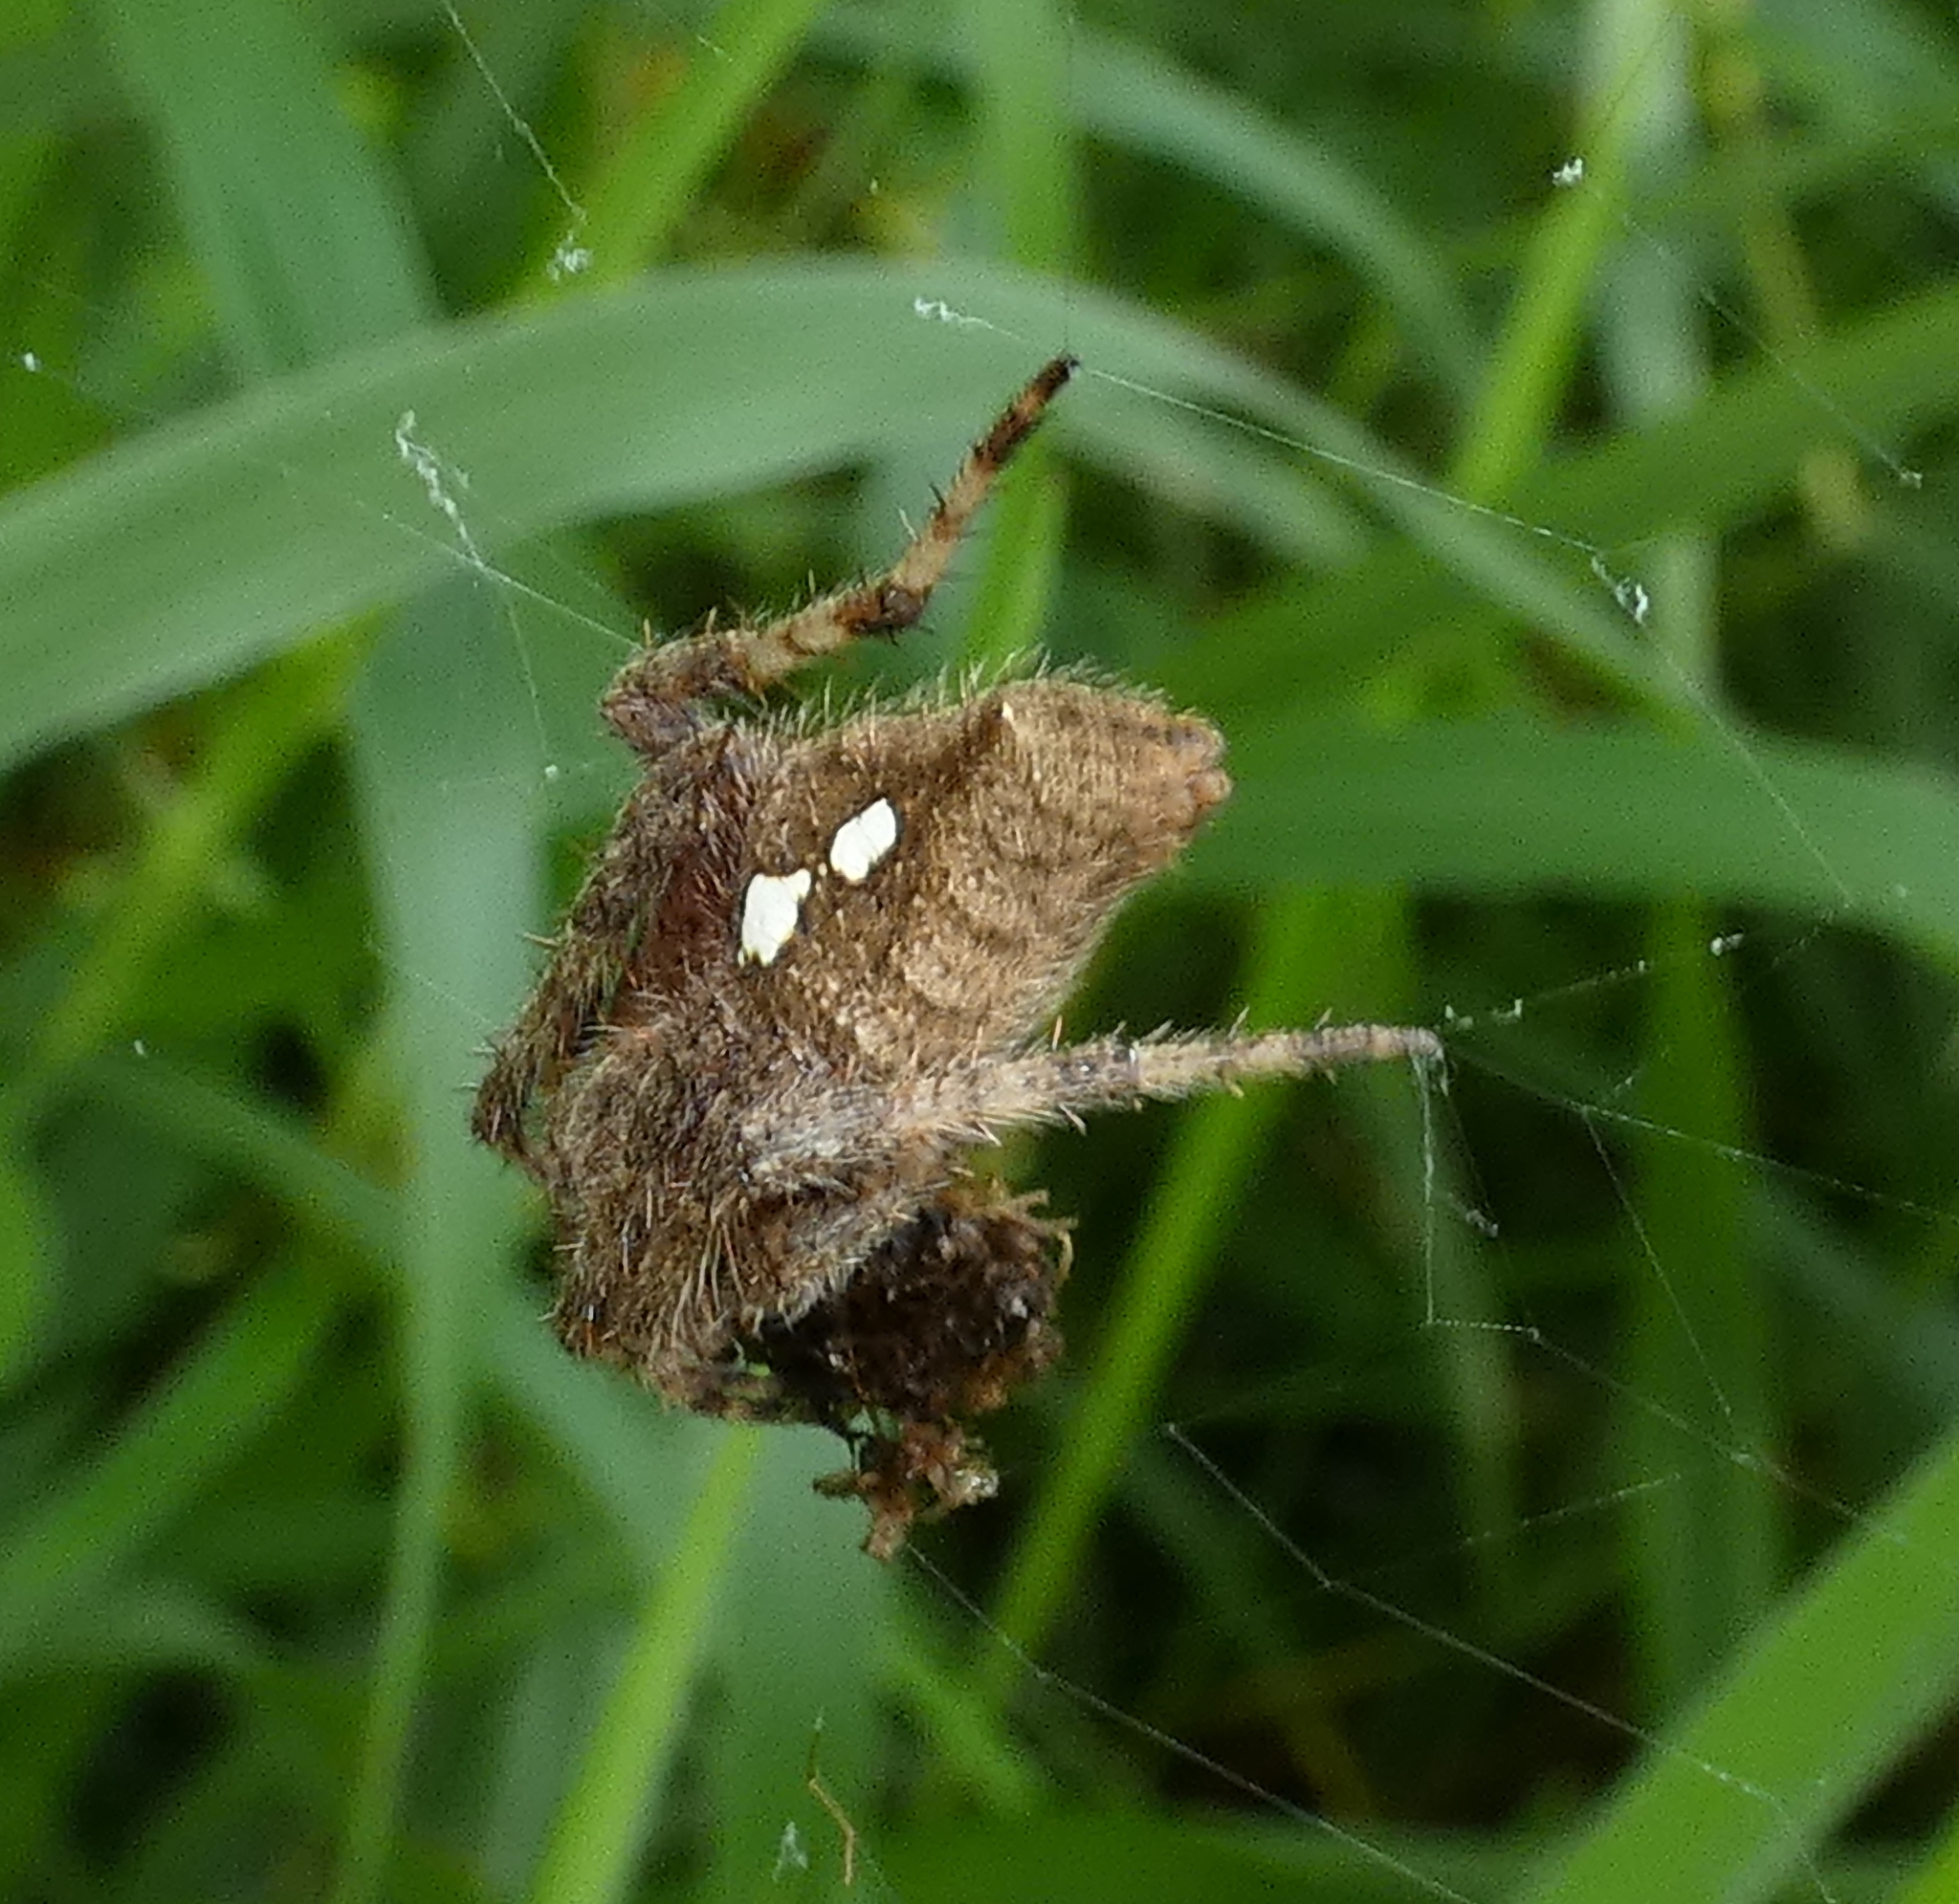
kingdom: Animalia
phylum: Arthropoda
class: Arachnida
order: Araneae
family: Araneidae
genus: Eriophora
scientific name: Eriophora edax
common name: Orb weavers
